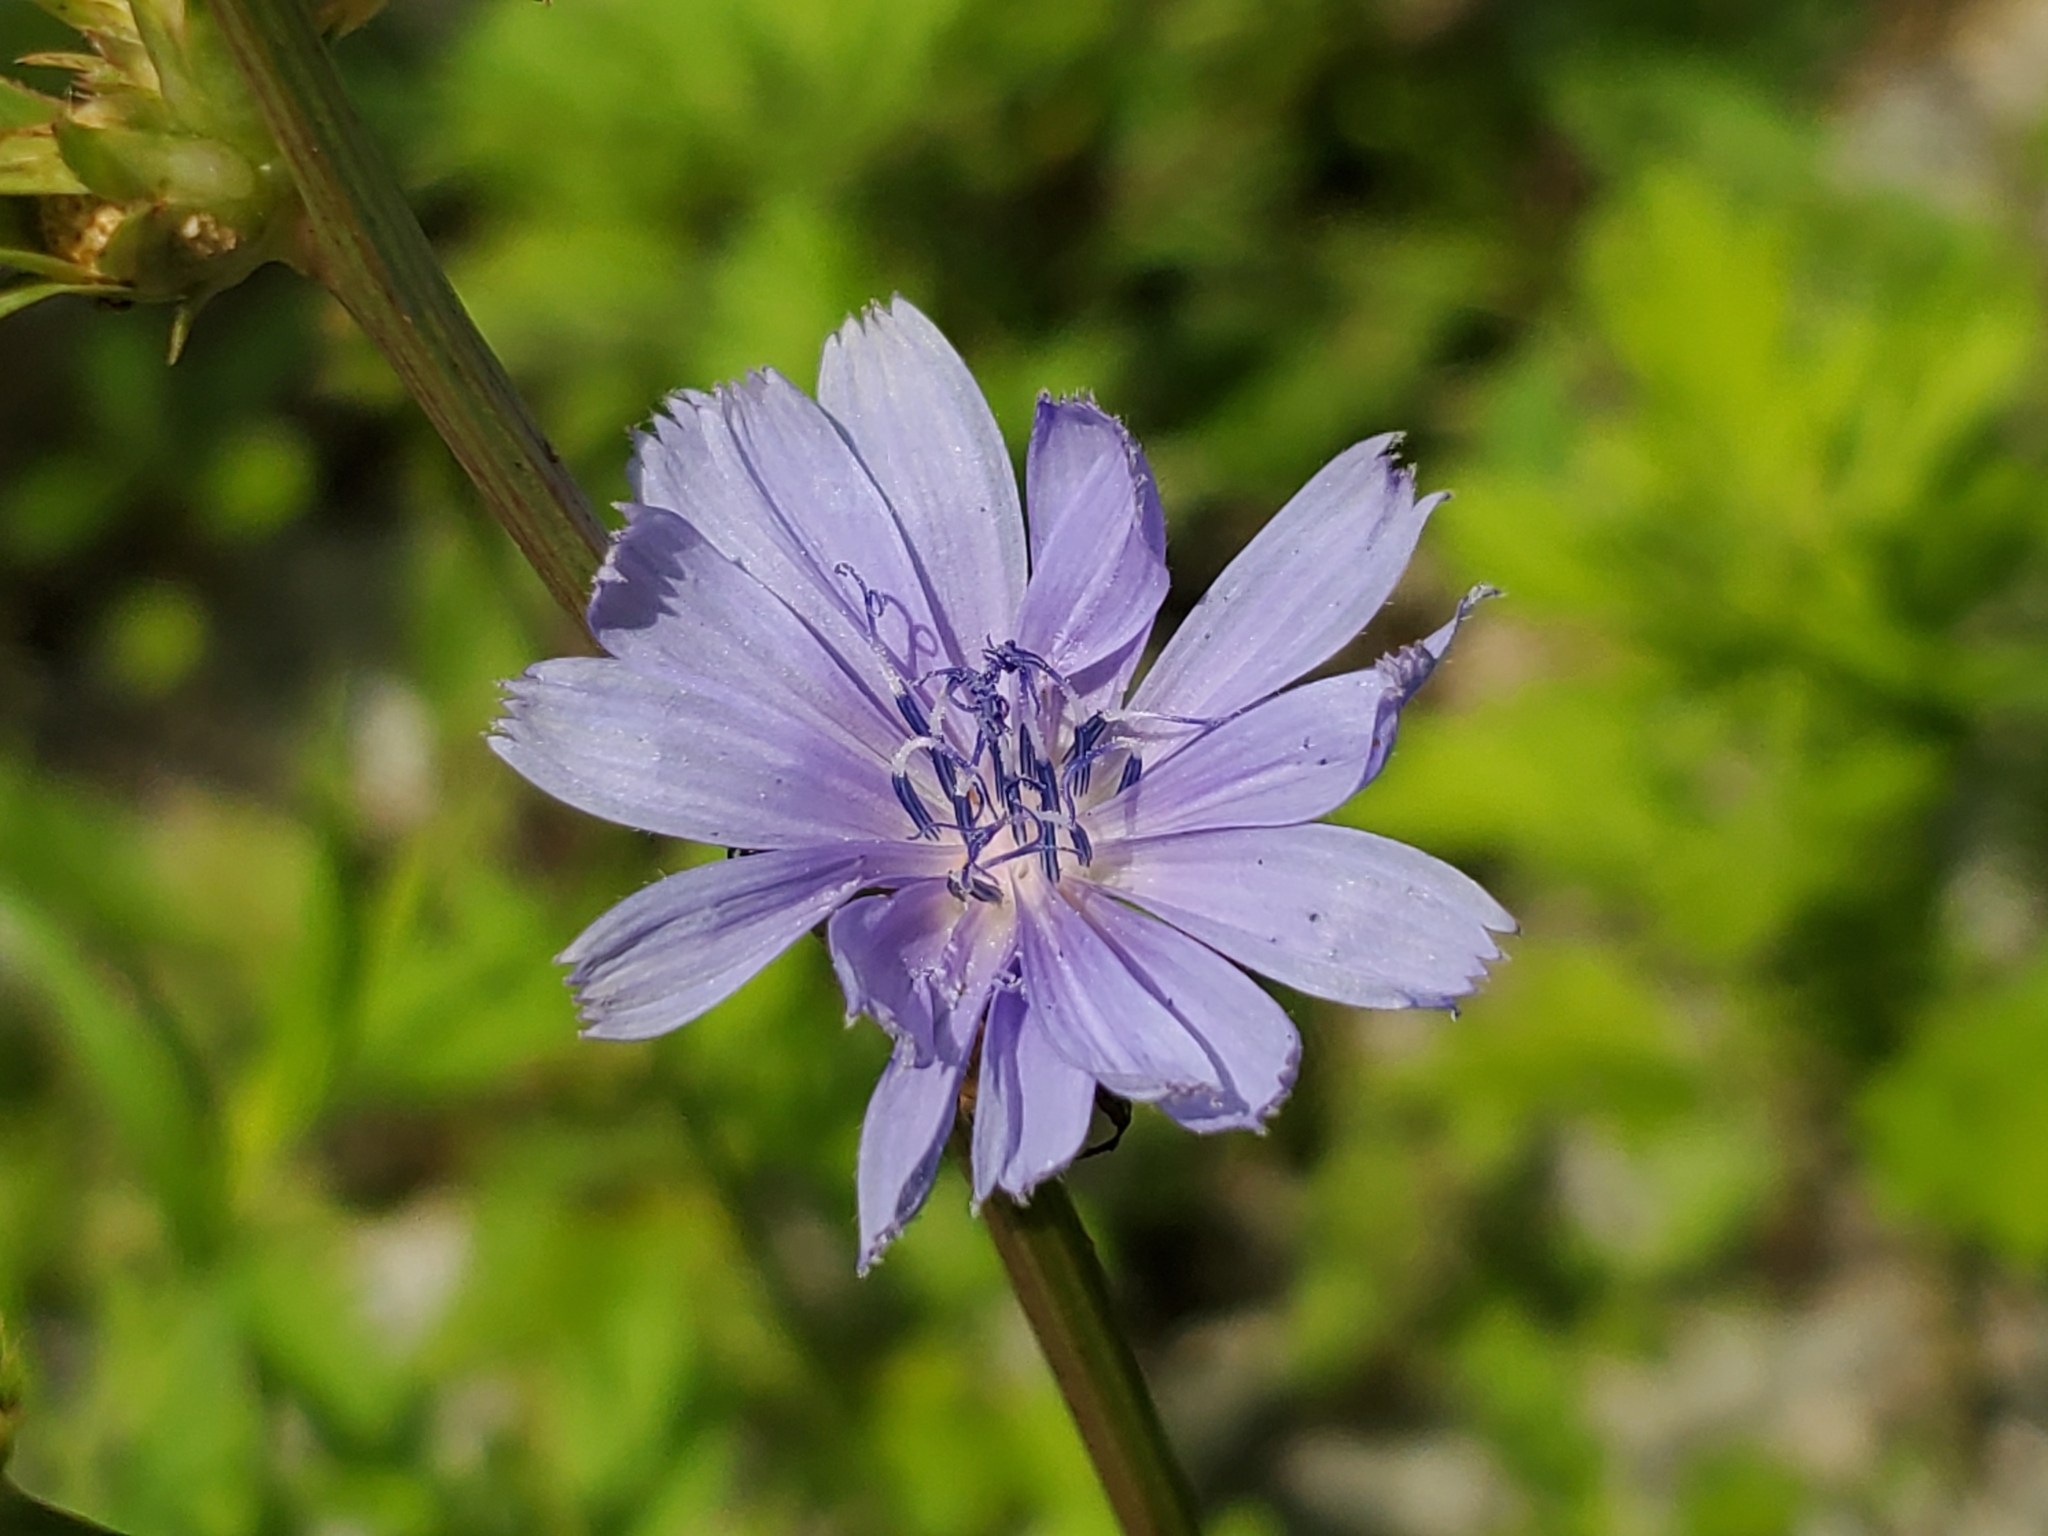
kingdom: Plantae
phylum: Tracheophyta
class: Magnoliopsida
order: Asterales
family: Asteraceae
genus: Cichorium
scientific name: Cichorium intybus
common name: Chicory
